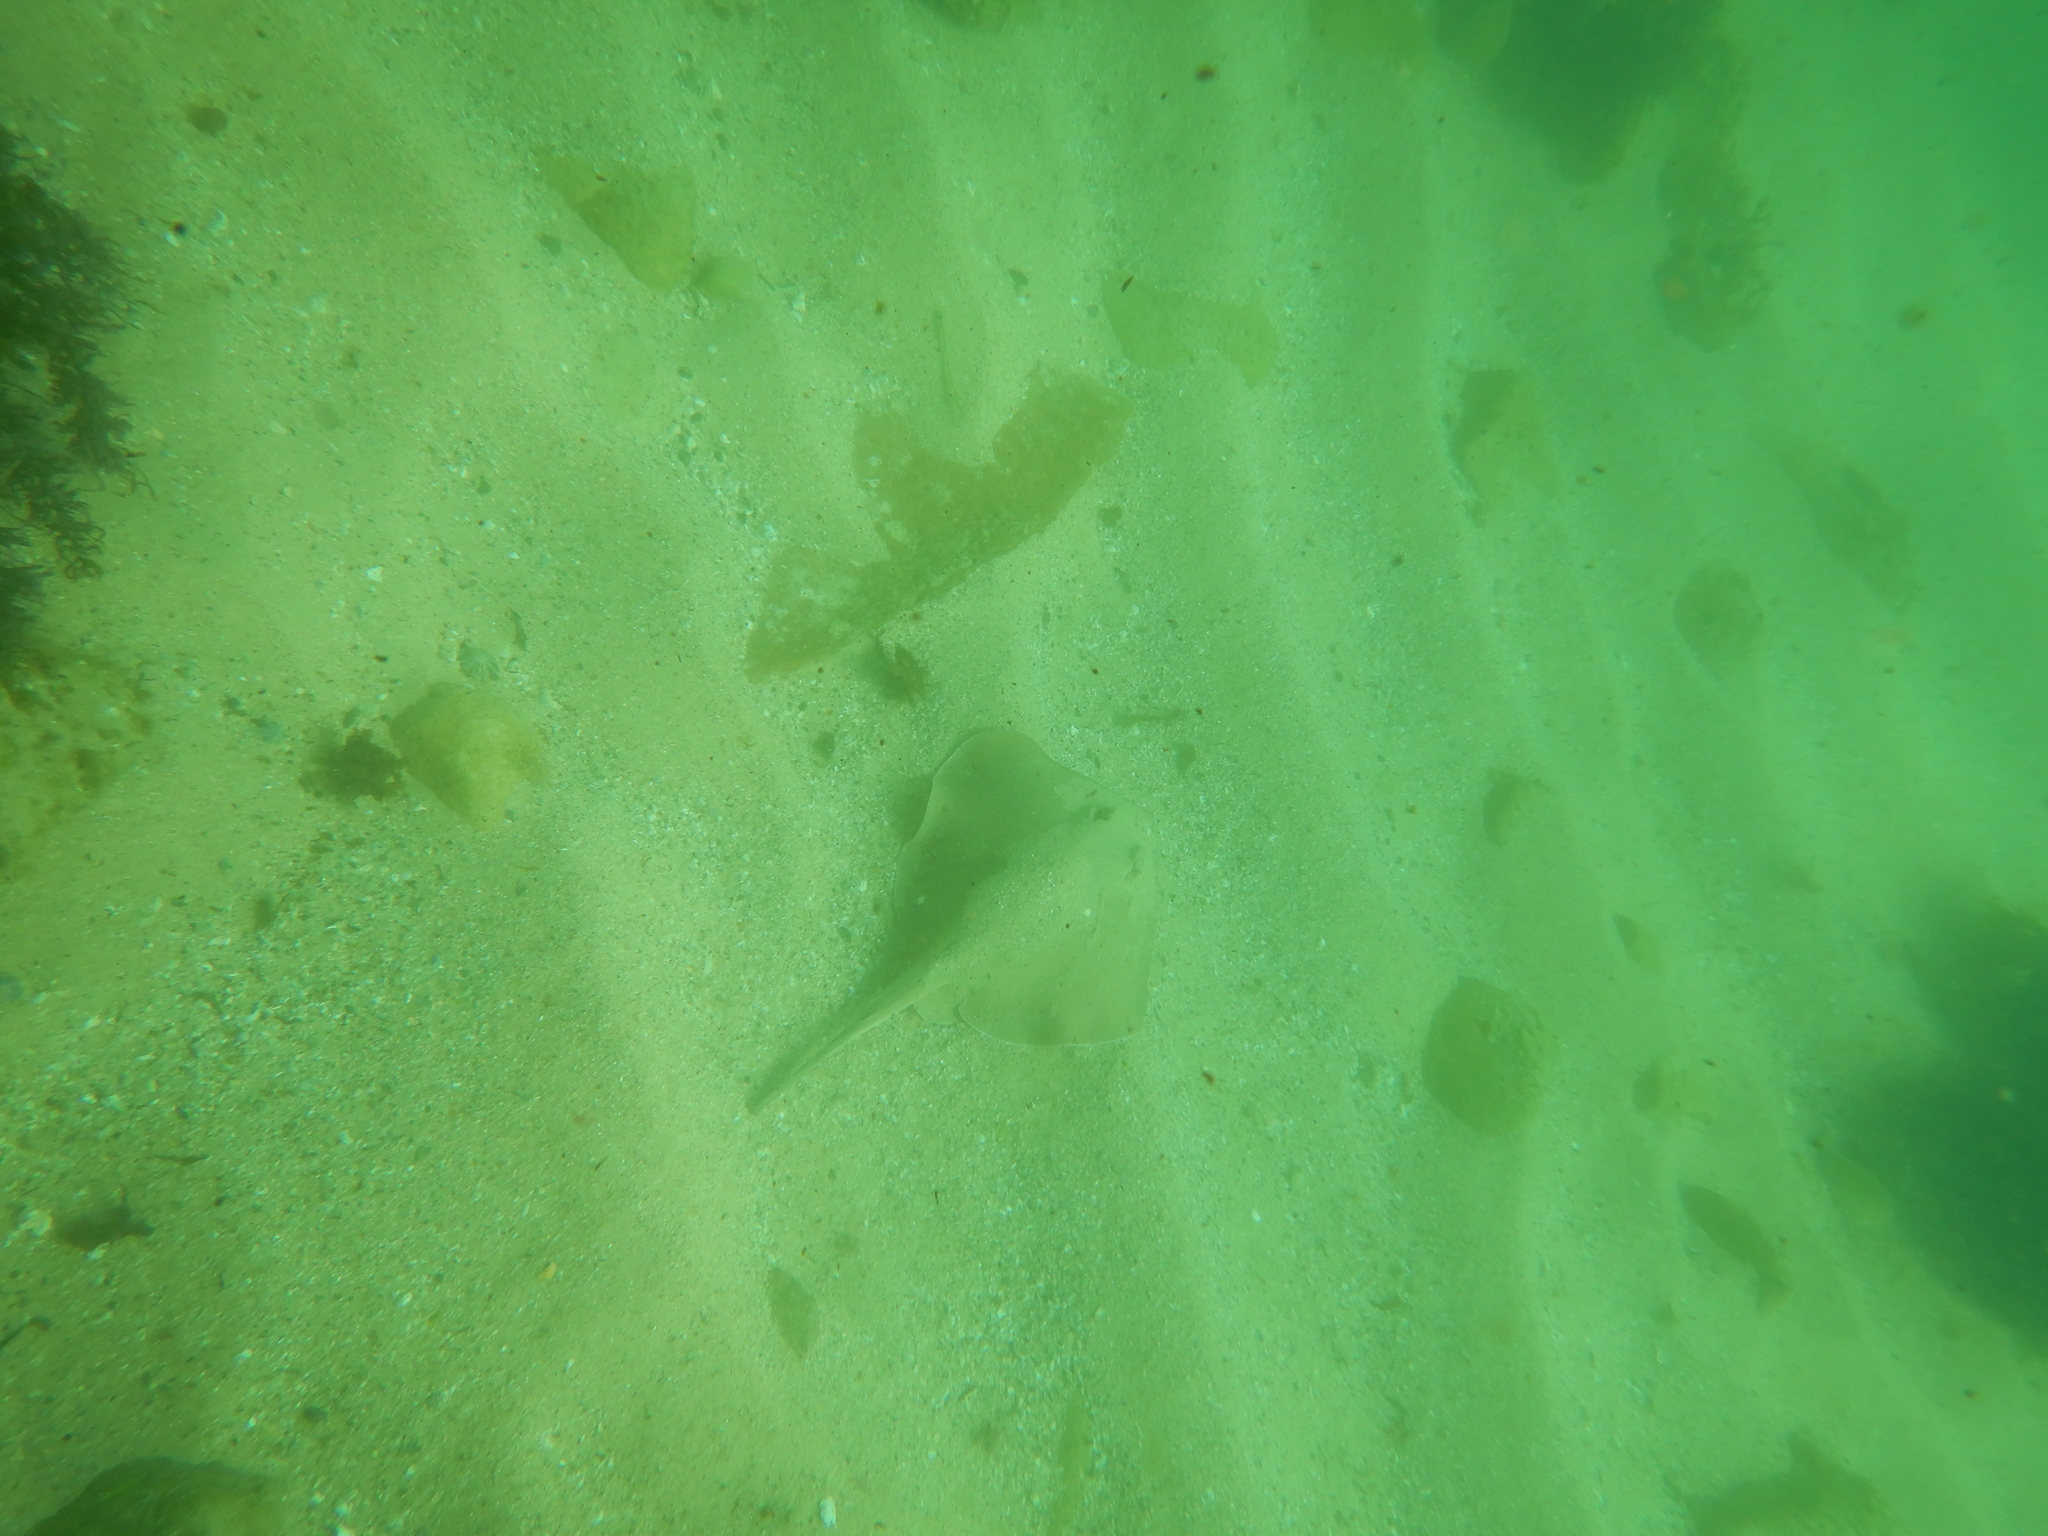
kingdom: Animalia
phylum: Chordata
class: Elasmobranchii
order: Myliobatiformes
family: Urolophidae
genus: Trygonoptera
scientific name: Trygonoptera testacea
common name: Common stingaree
